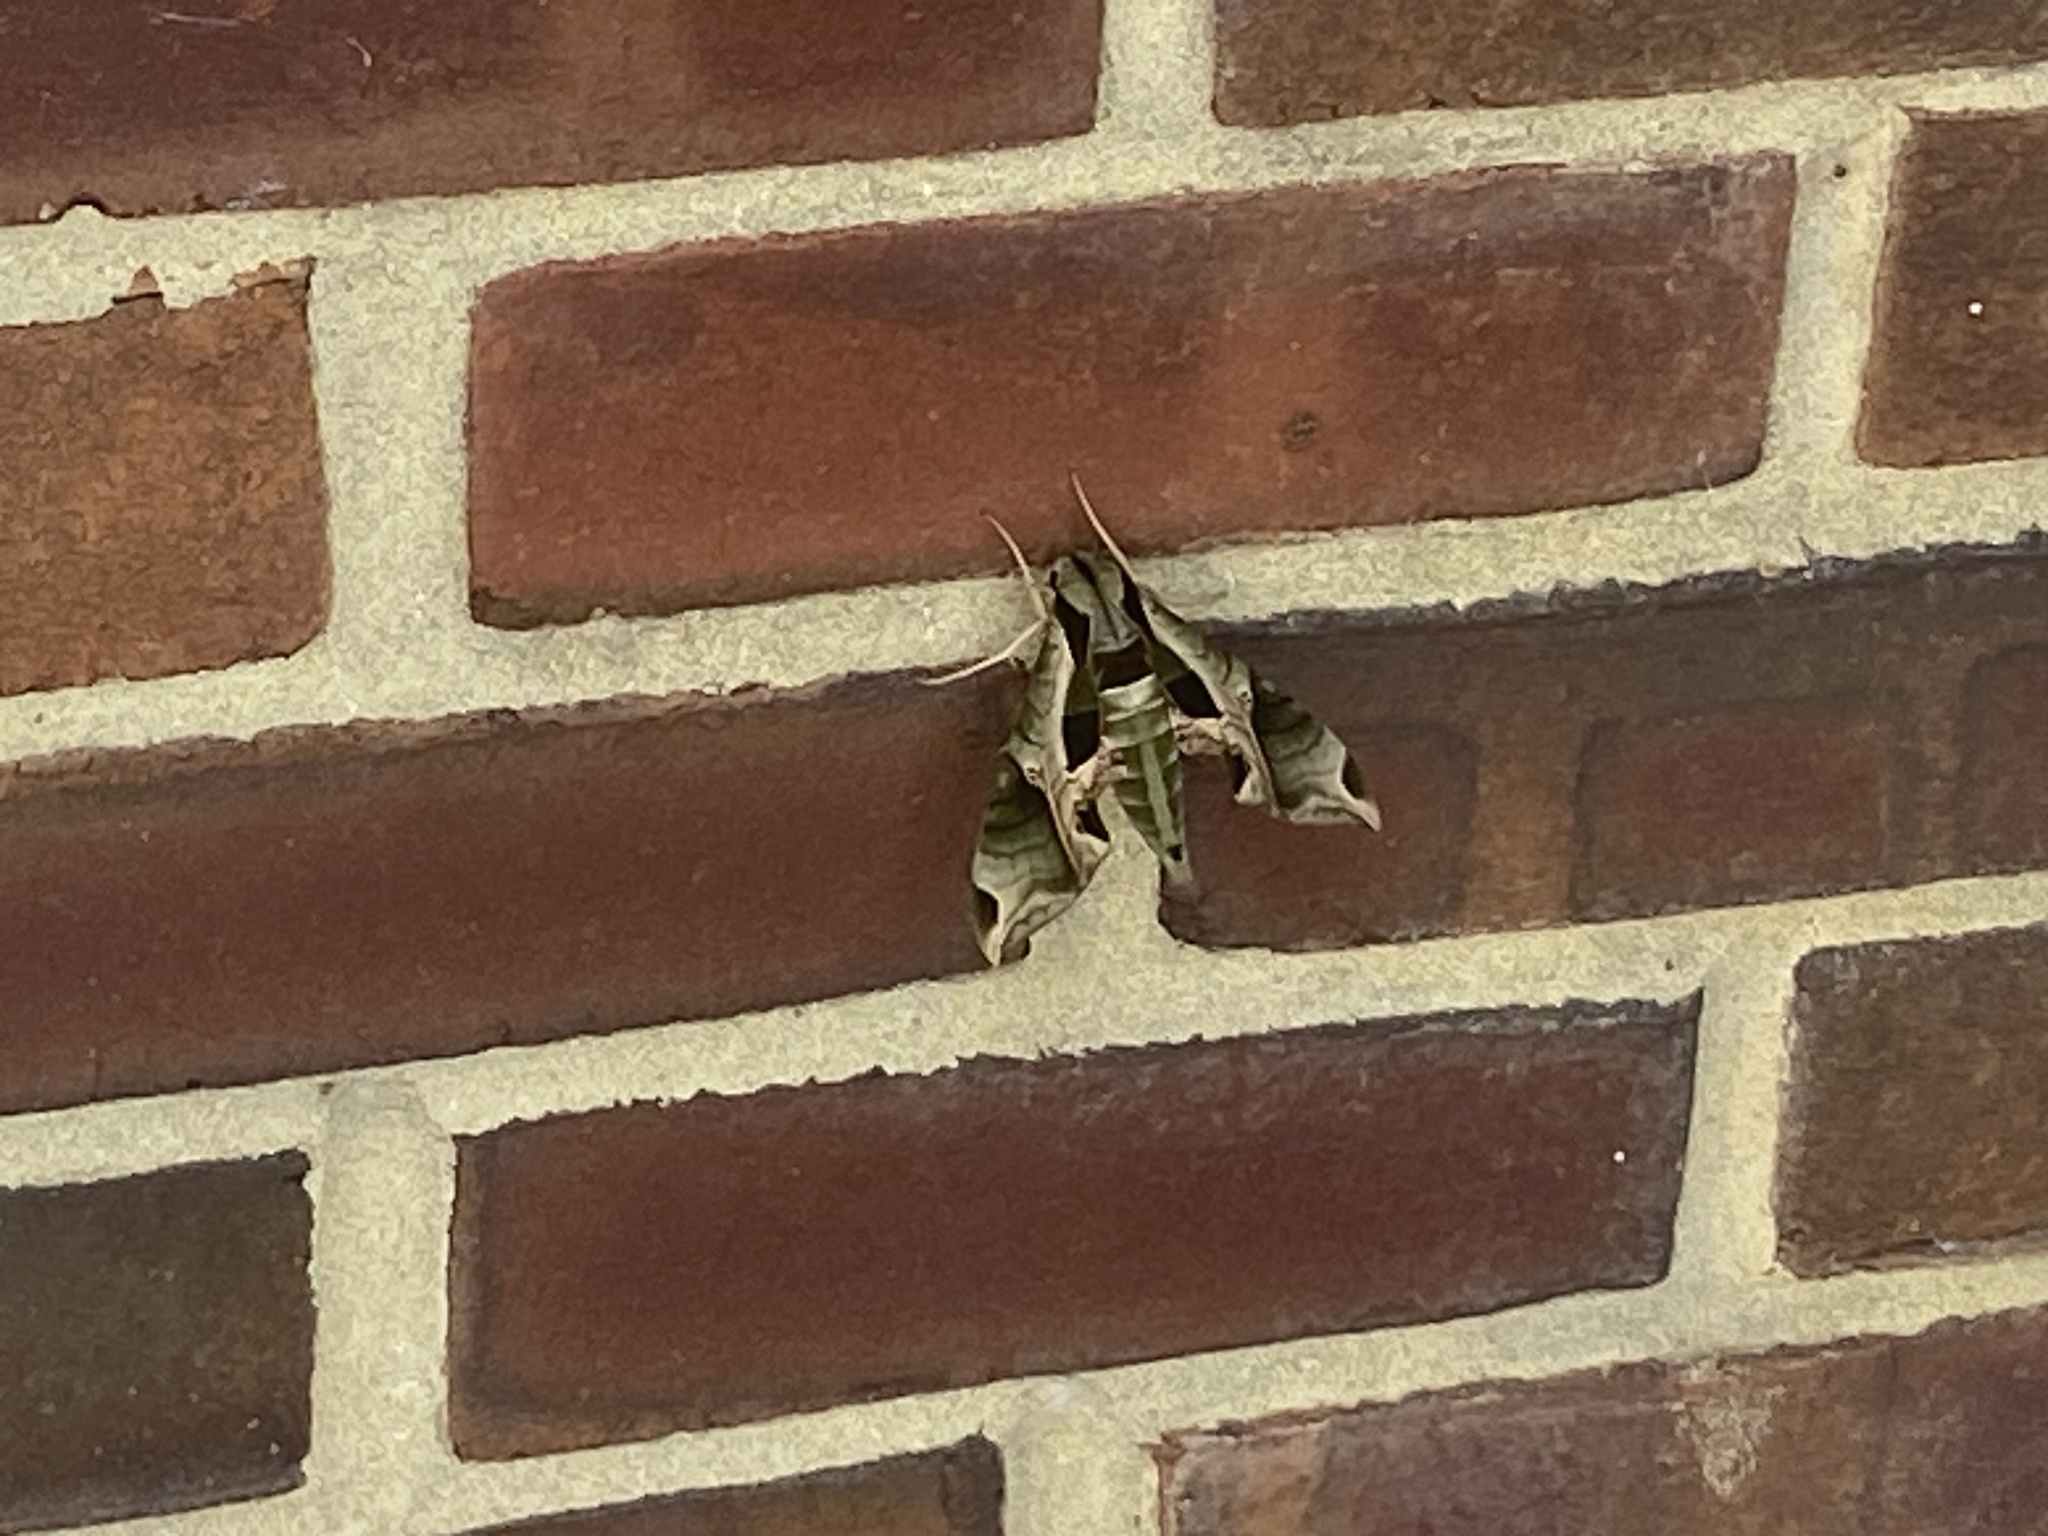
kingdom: Animalia
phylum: Arthropoda
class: Insecta
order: Lepidoptera
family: Sphingidae
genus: Eumorpha
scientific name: Eumorpha pandorus
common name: Pandora sphinx
